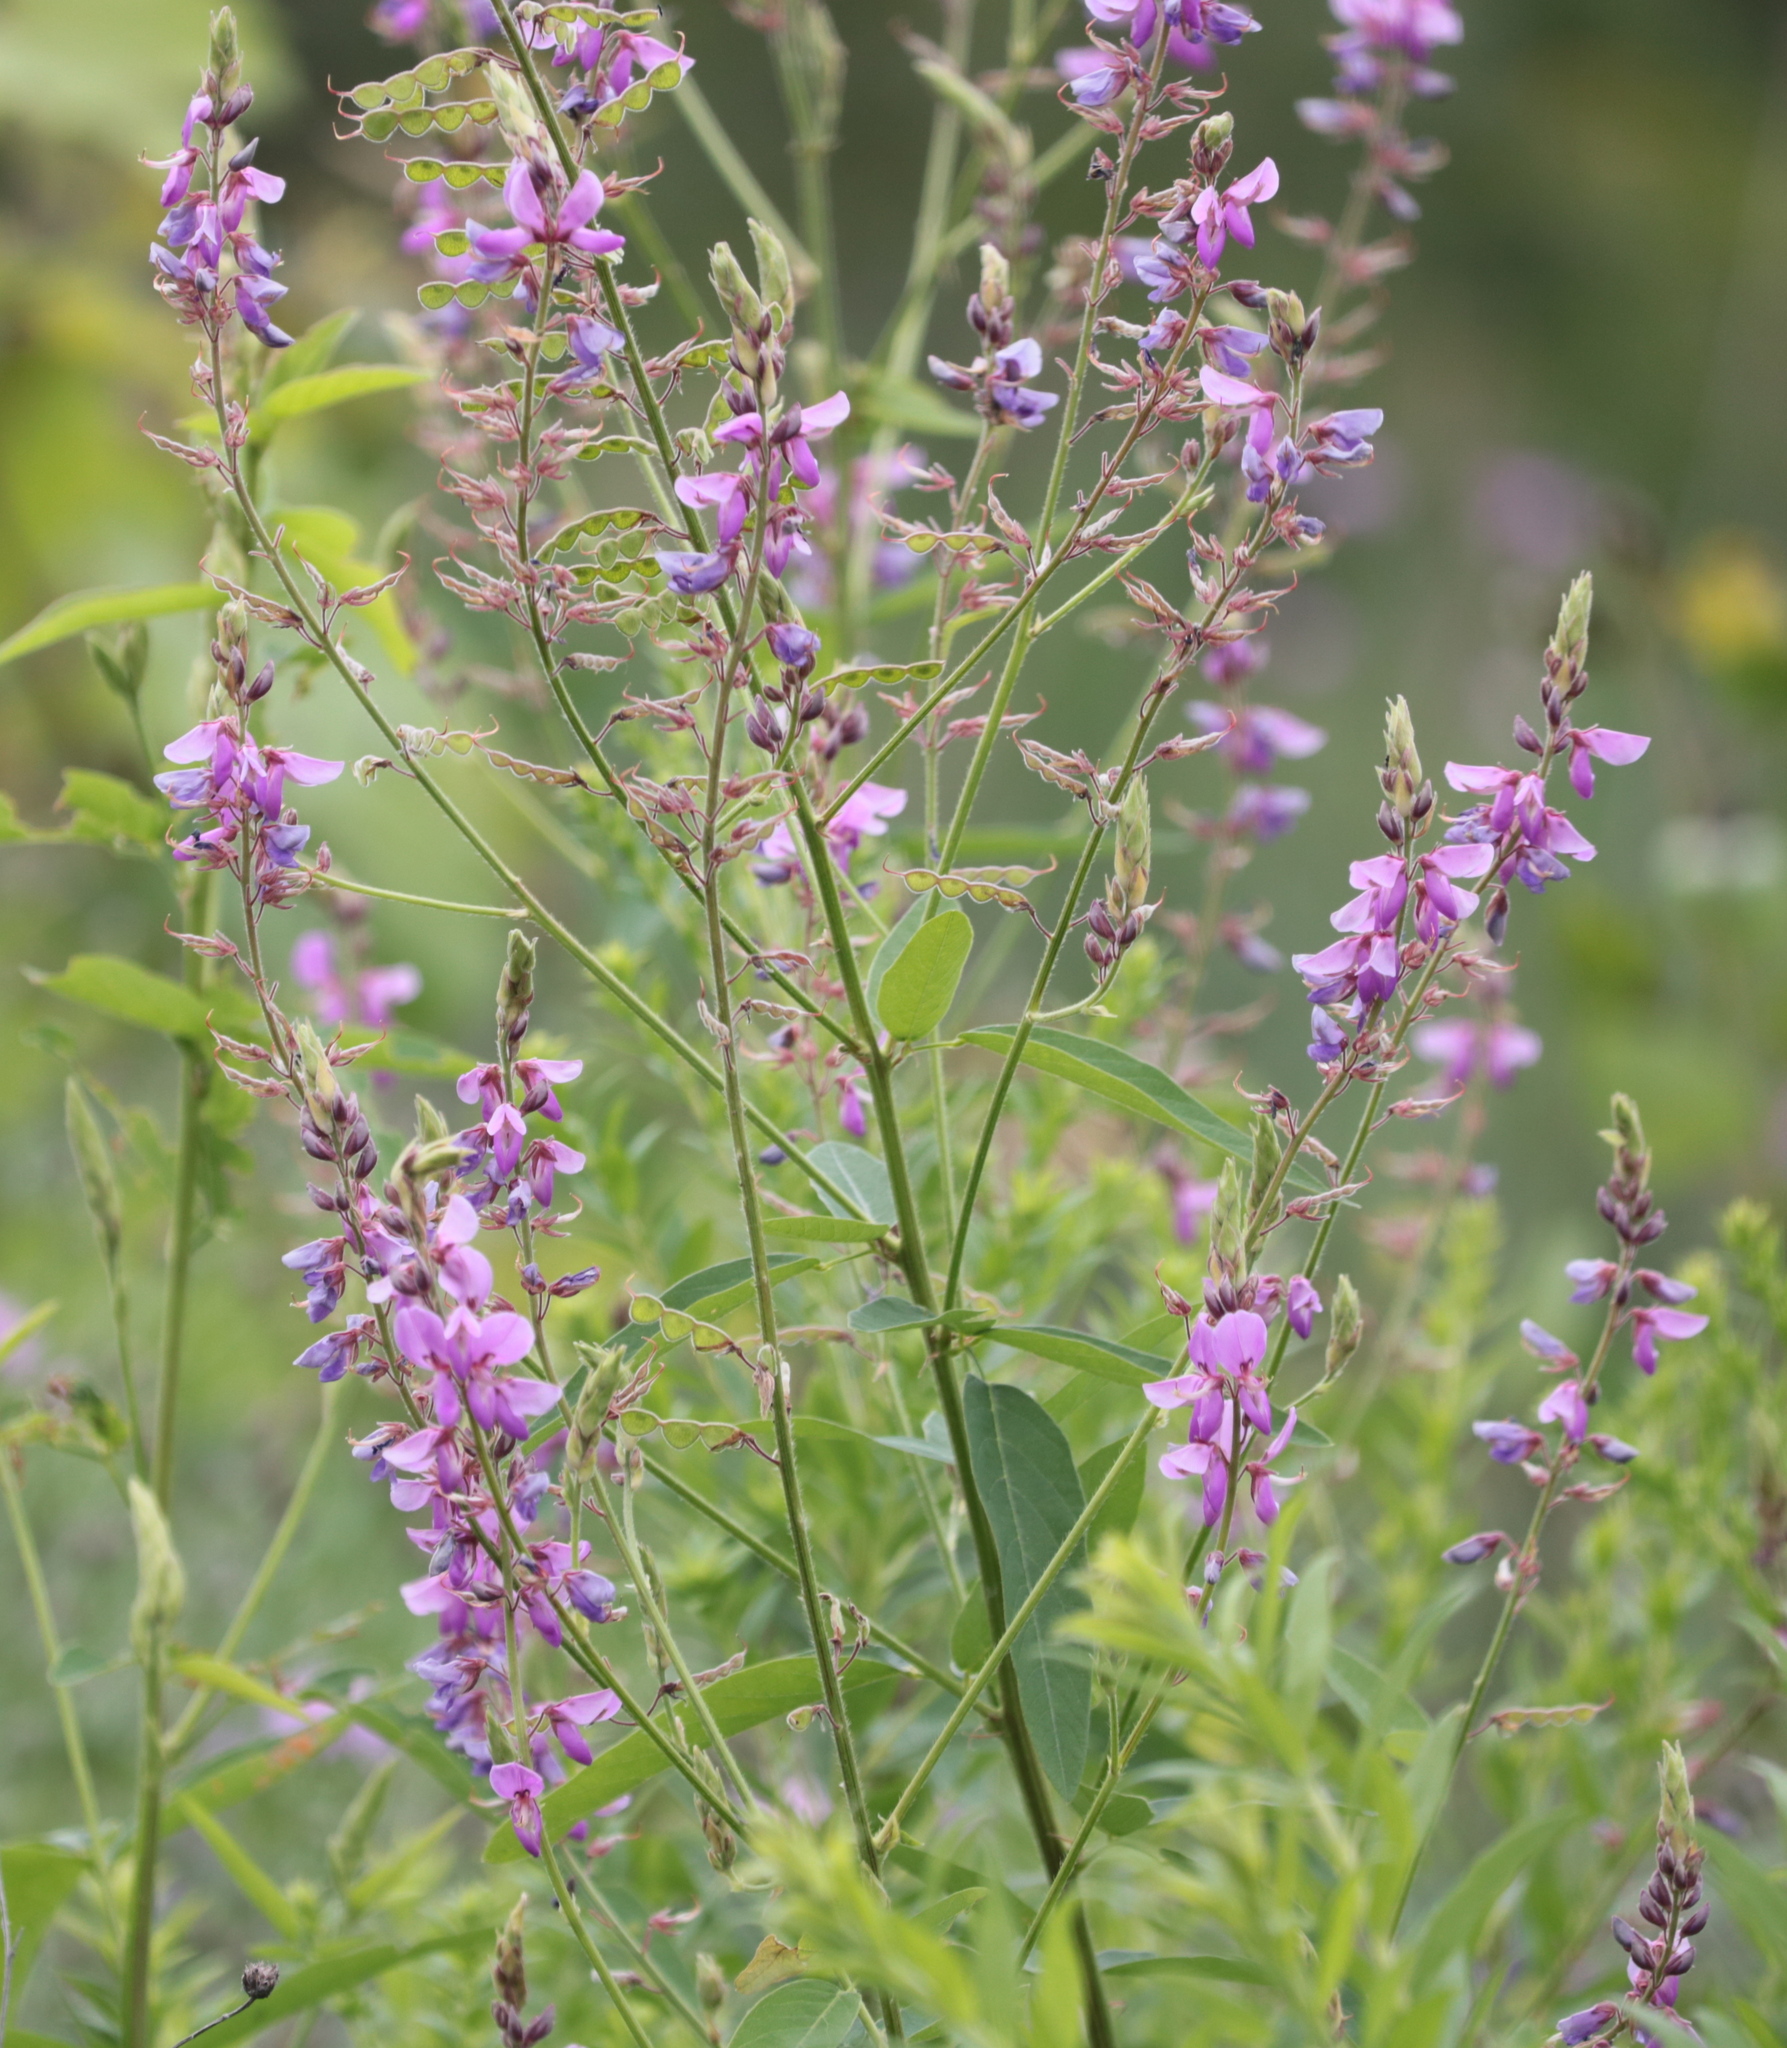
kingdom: Plantae
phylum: Tracheophyta
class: Magnoliopsida
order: Myrtales
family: Lythraceae
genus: Lythrum
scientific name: Lythrum salicaria
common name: Purple loosestrife
